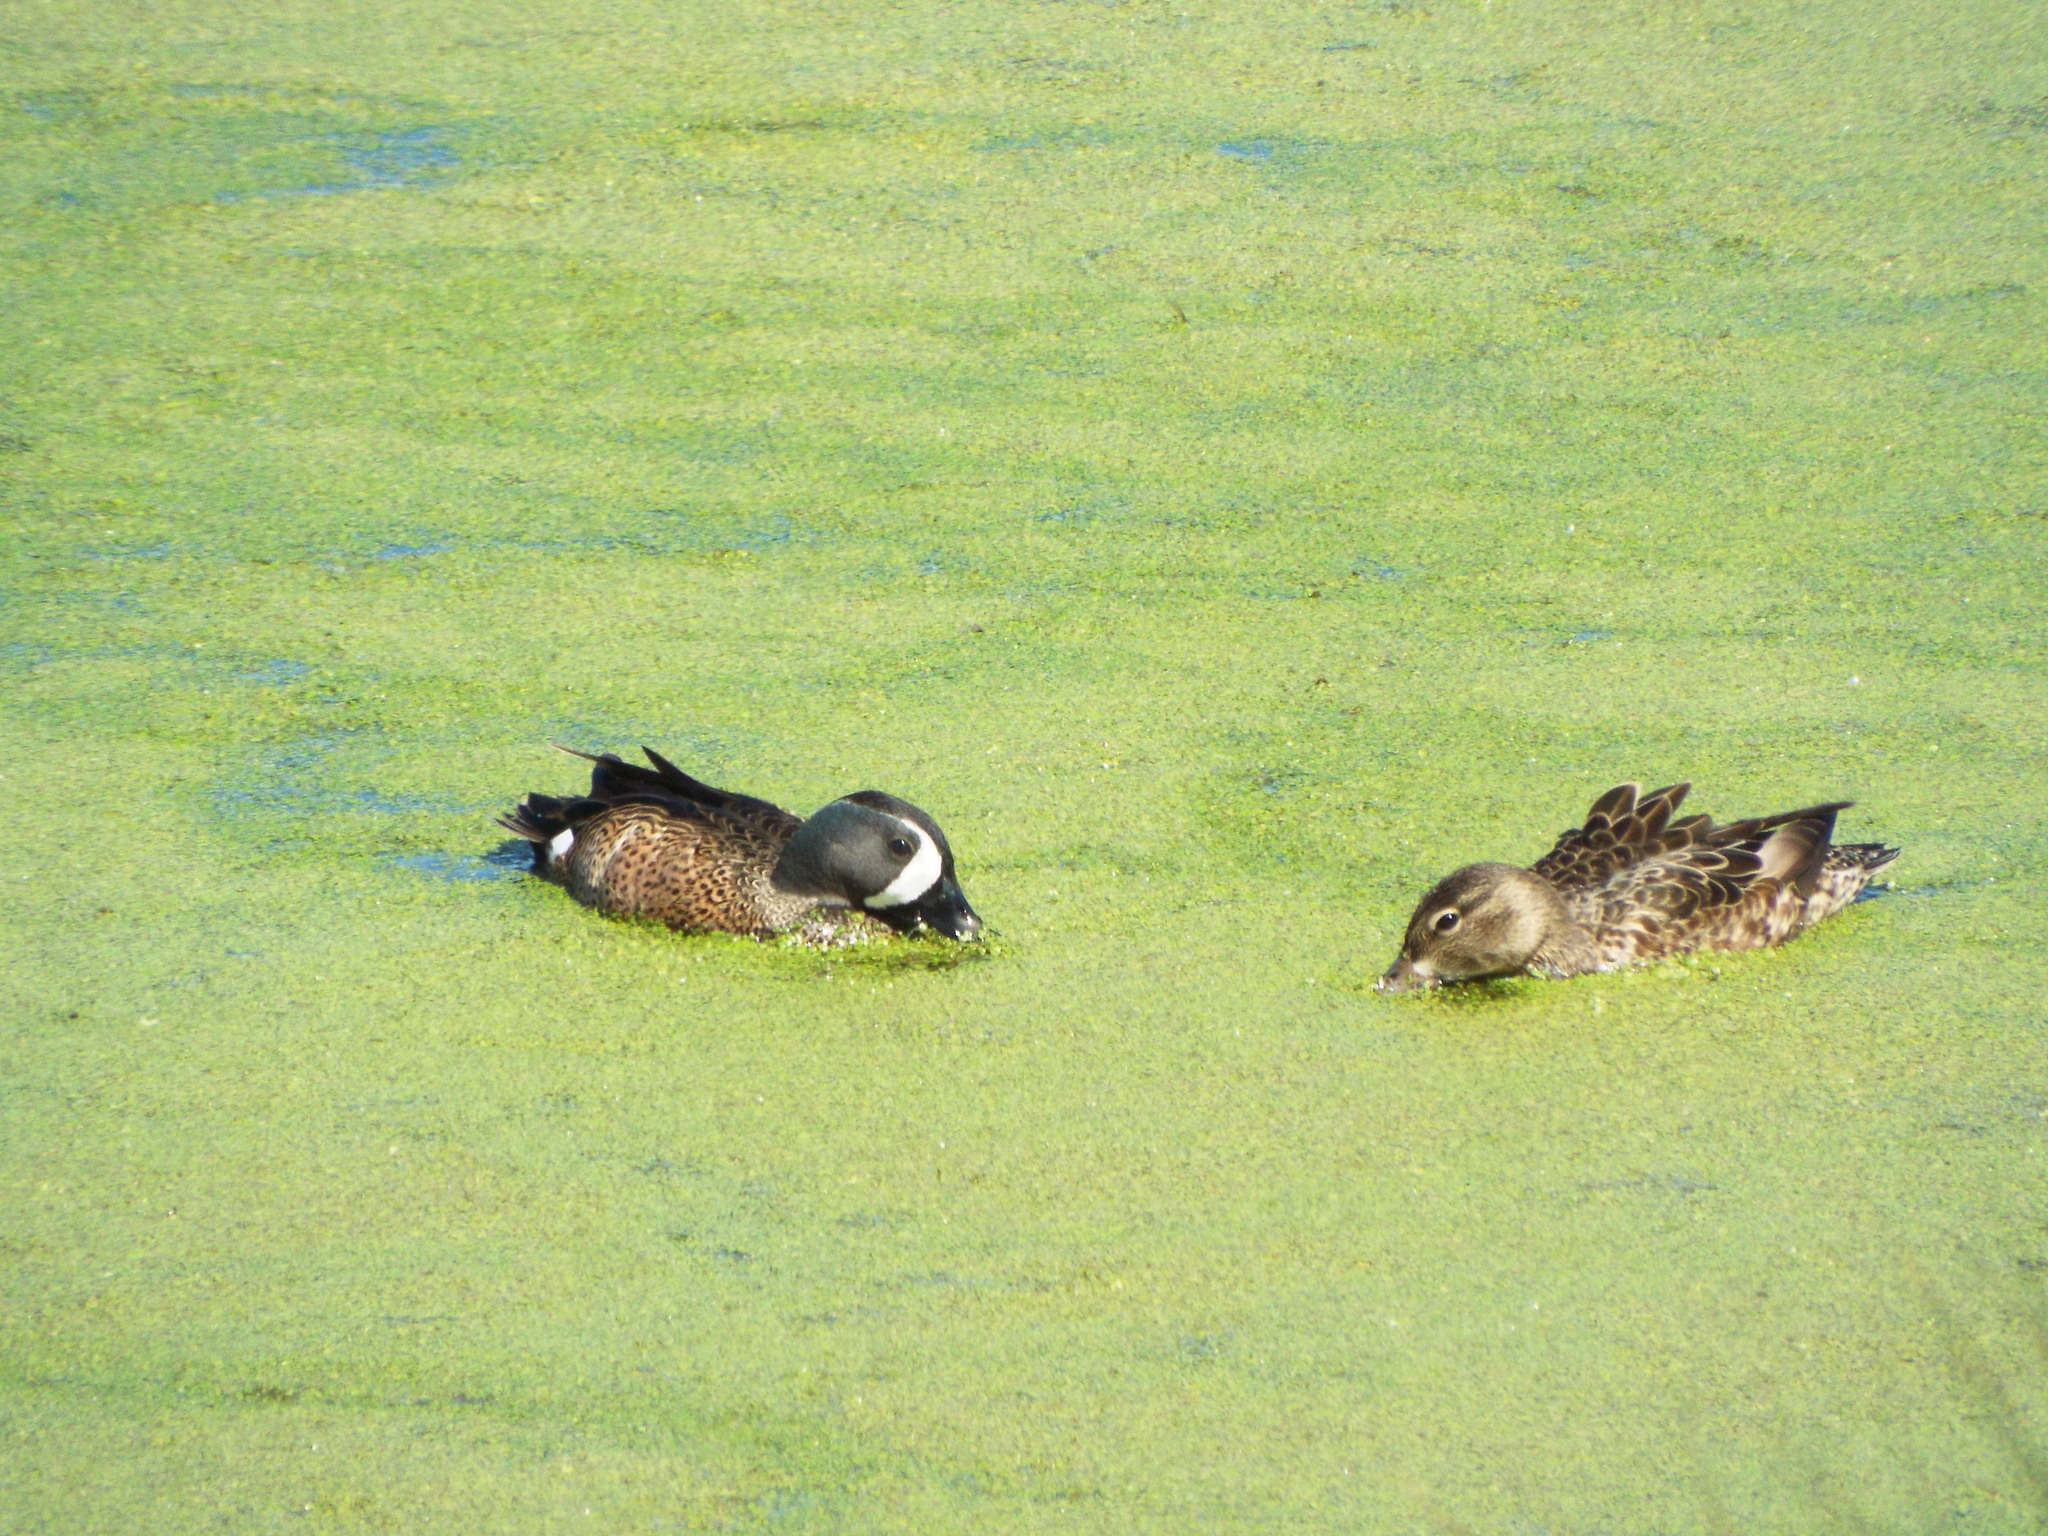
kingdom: Animalia
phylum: Chordata
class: Aves
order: Anseriformes
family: Anatidae
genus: Spatula
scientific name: Spatula discors
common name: Blue-winged teal
